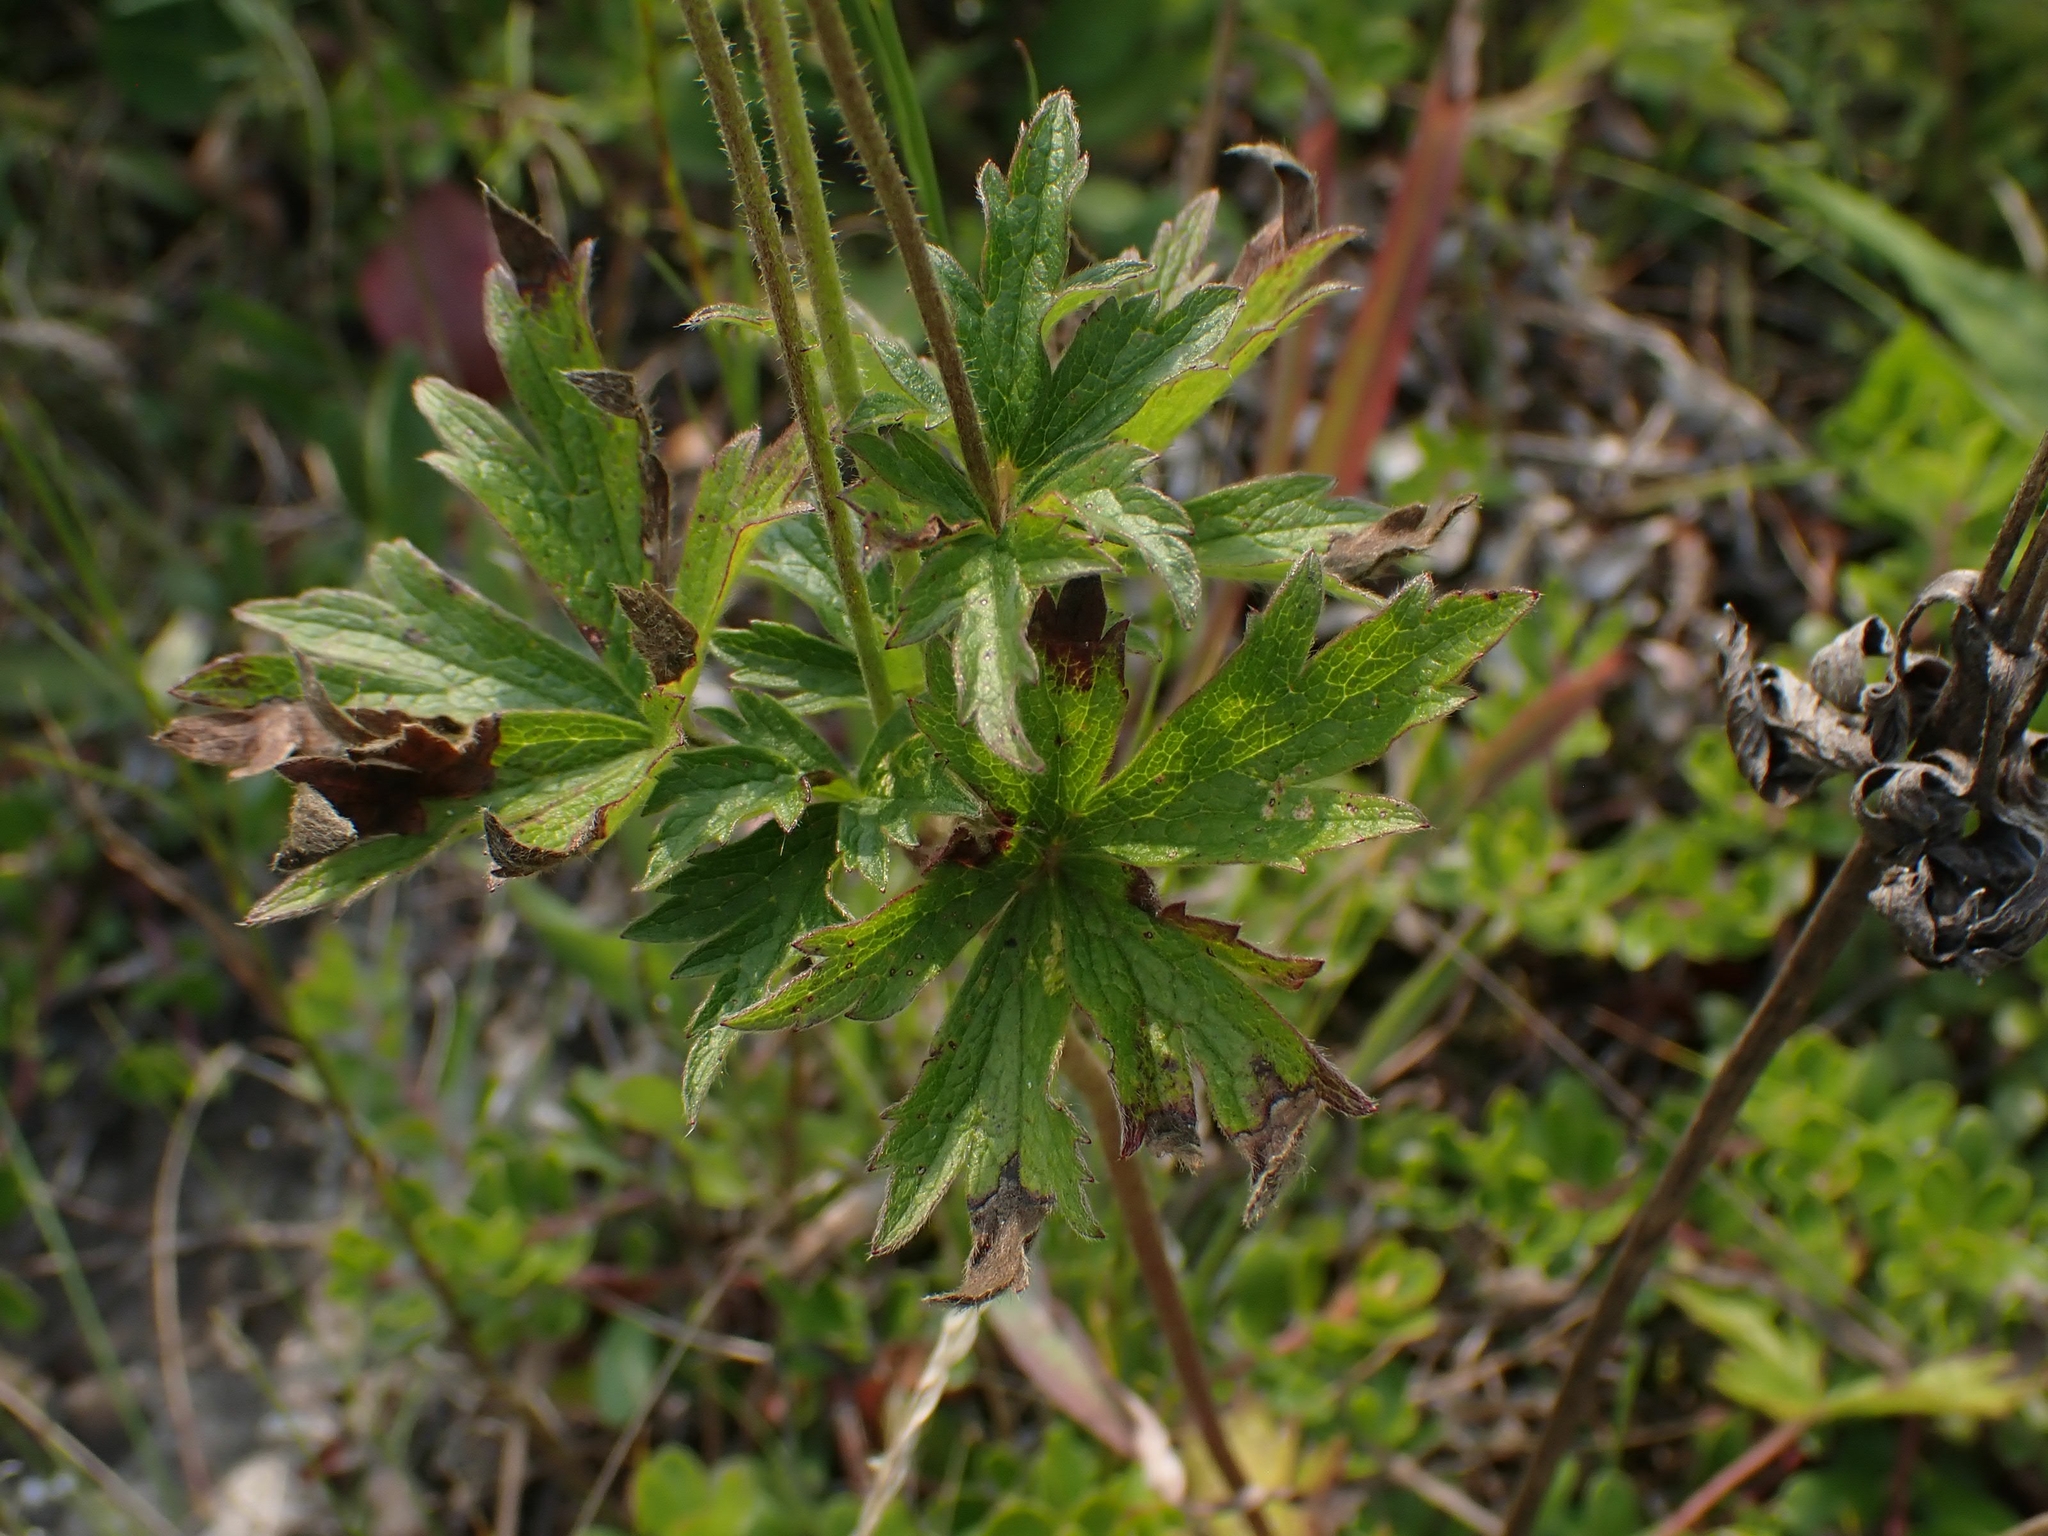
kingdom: Plantae
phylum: Tracheophyta
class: Magnoliopsida
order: Ranunculales
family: Ranunculaceae
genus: Anemone
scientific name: Anemone cylindrica
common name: Candle anemone
